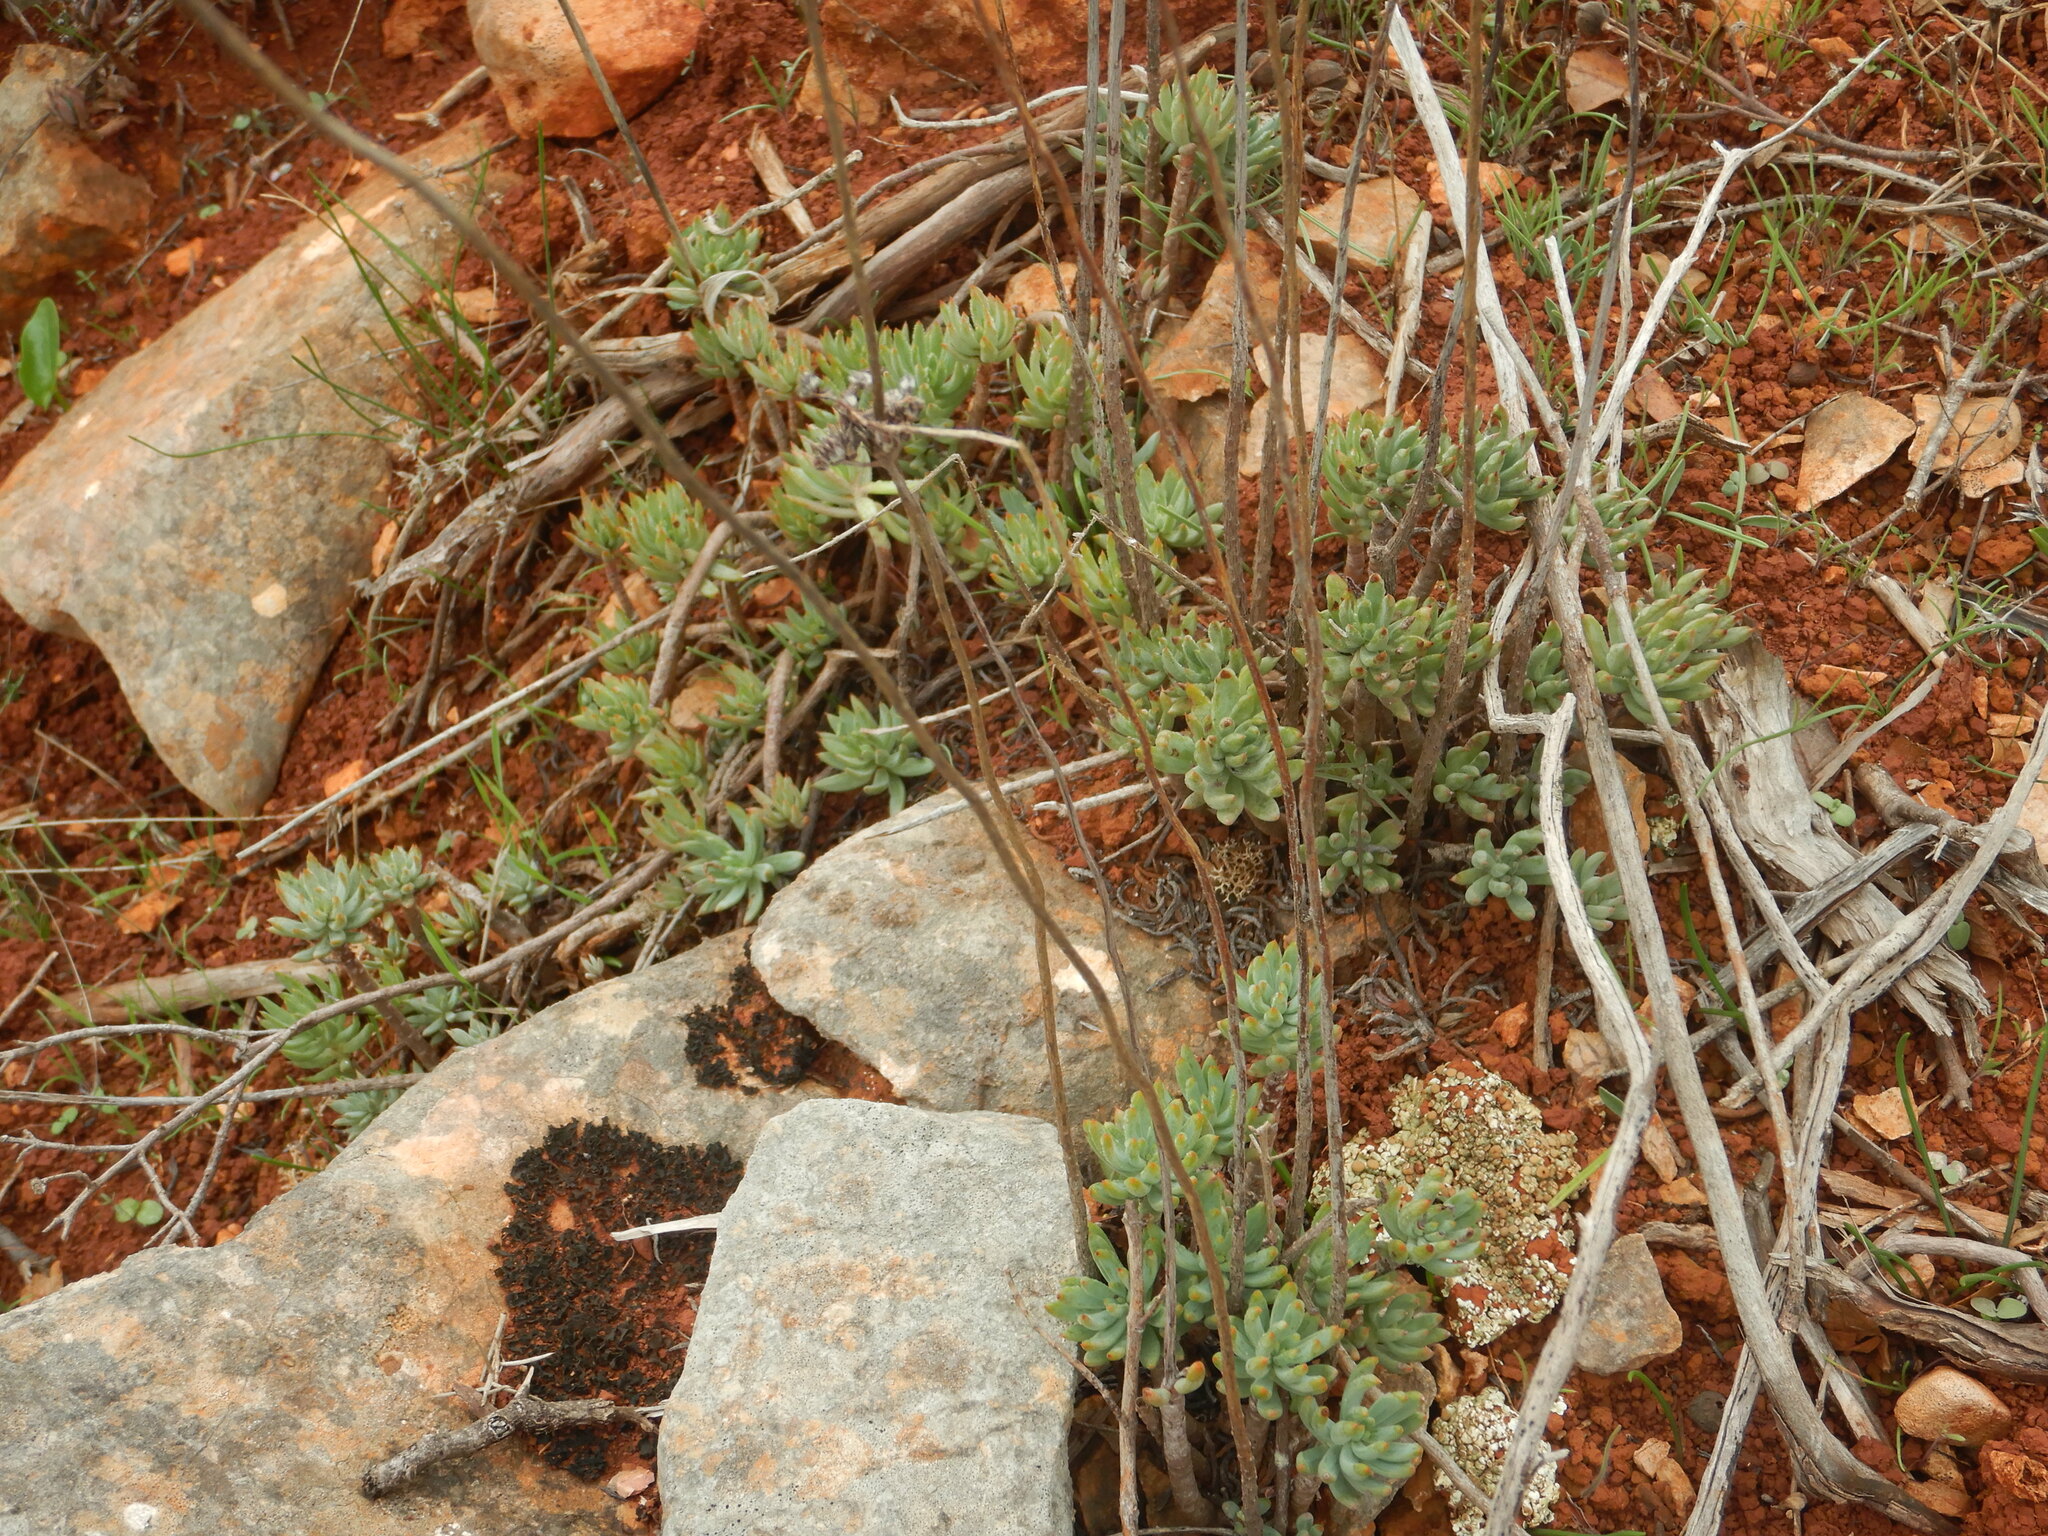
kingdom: Plantae
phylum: Tracheophyta
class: Magnoliopsida
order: Saxifragales
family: Crassulaceae
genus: Petrosedum
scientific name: Petrosedum sediforme
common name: Pale stonecrop
